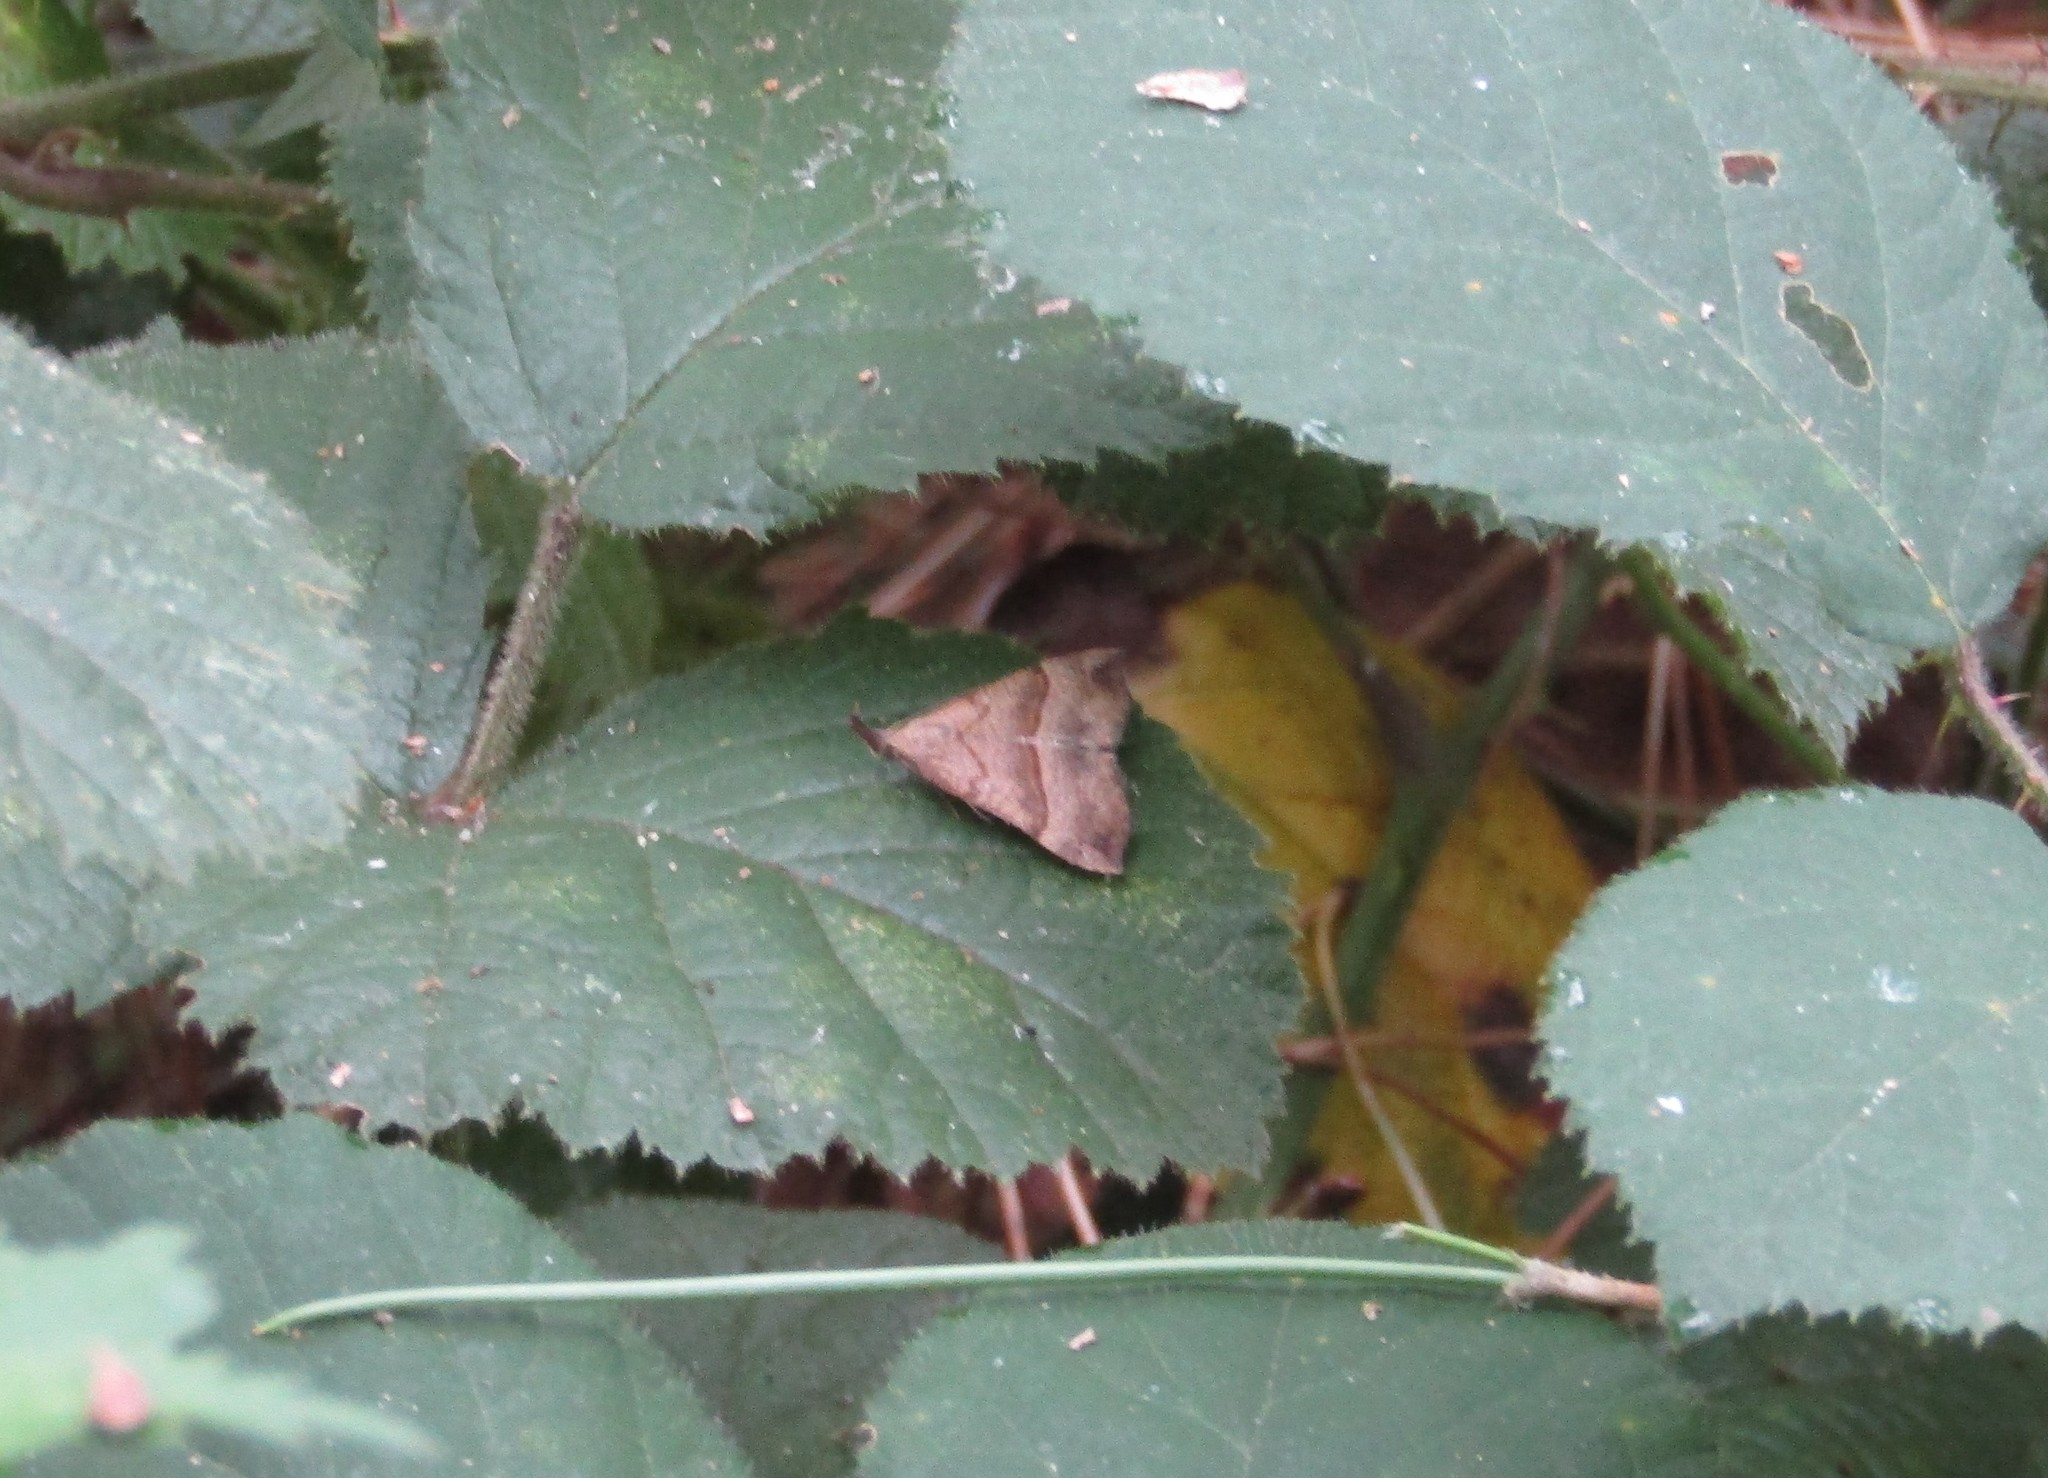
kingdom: Animalia
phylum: Arthropoda
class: Insecta
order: Lepidoptera
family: Erebidae
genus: Hypena
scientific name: Hypena proboscidalis
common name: Snout
